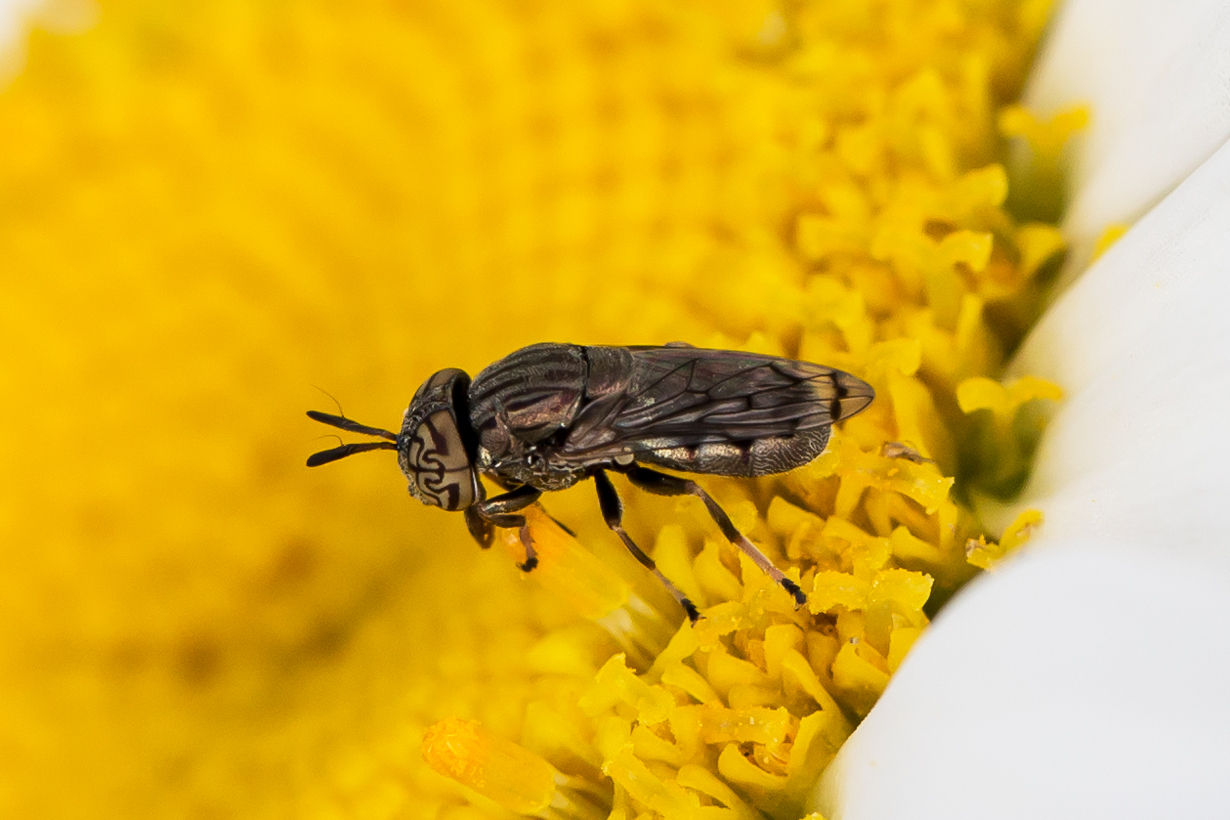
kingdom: Animalia
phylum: Arthropoda
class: Insecta
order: Diptera
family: Syrphidae
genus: Orthonevra
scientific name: Orthonevra nitida
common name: Wavy mucksucker
